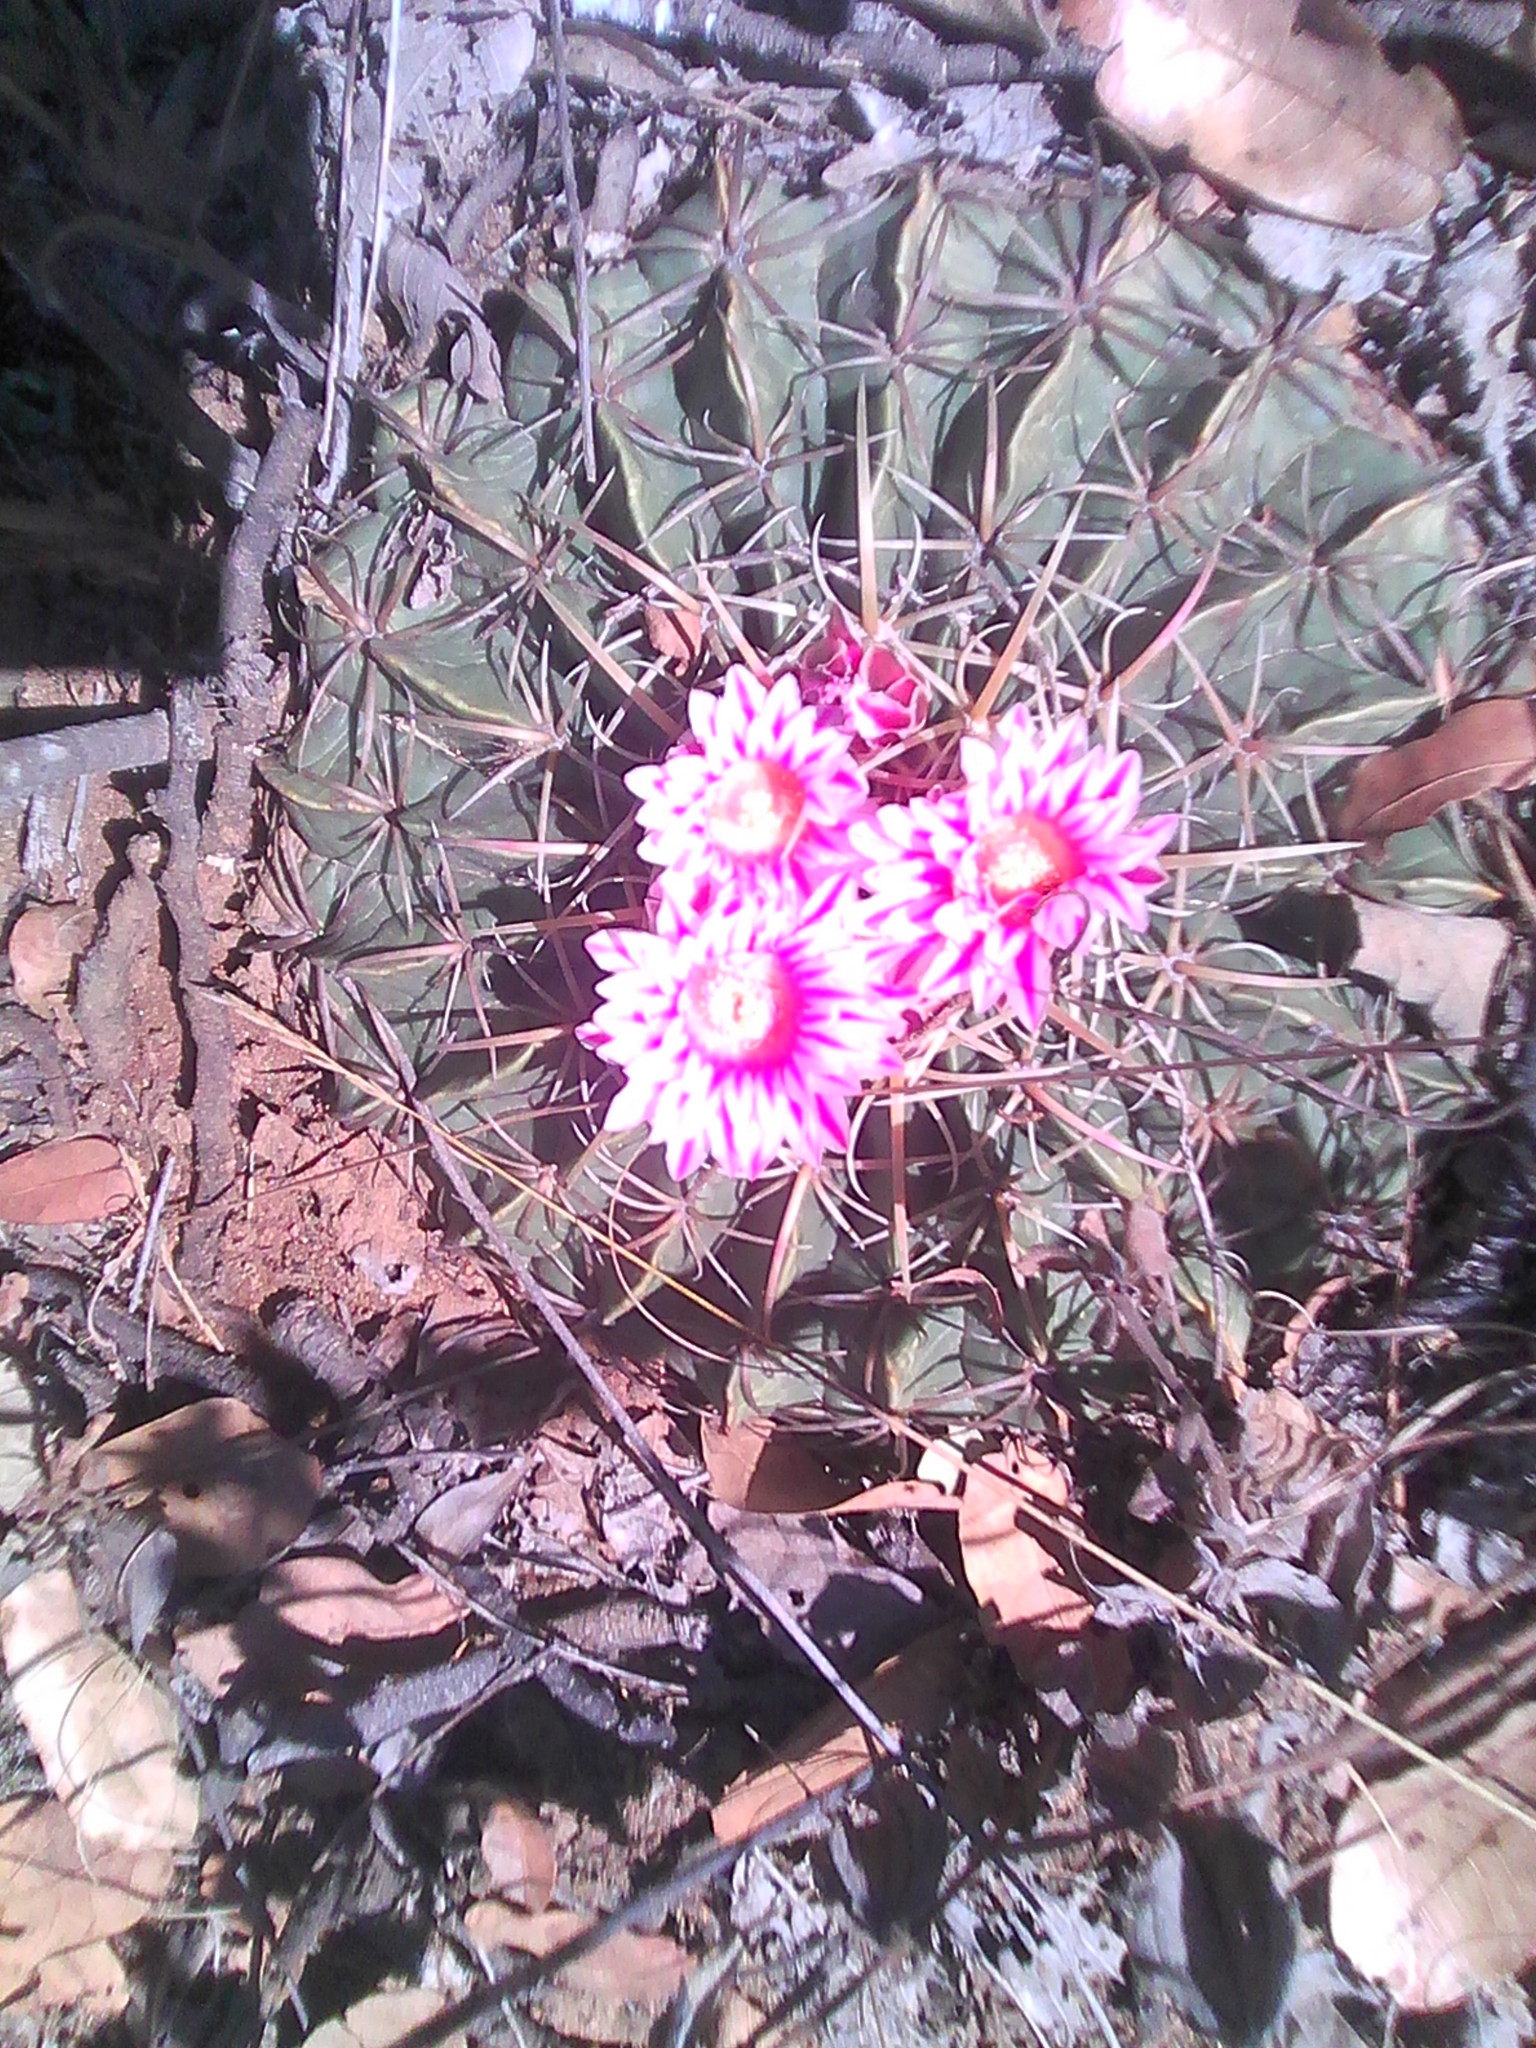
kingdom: Plantae
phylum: Tracheophyta
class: Magnoliopsida
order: Caryophyllales
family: Cactaceae
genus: Ferocactus
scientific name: Ferocactus macrodiscus
